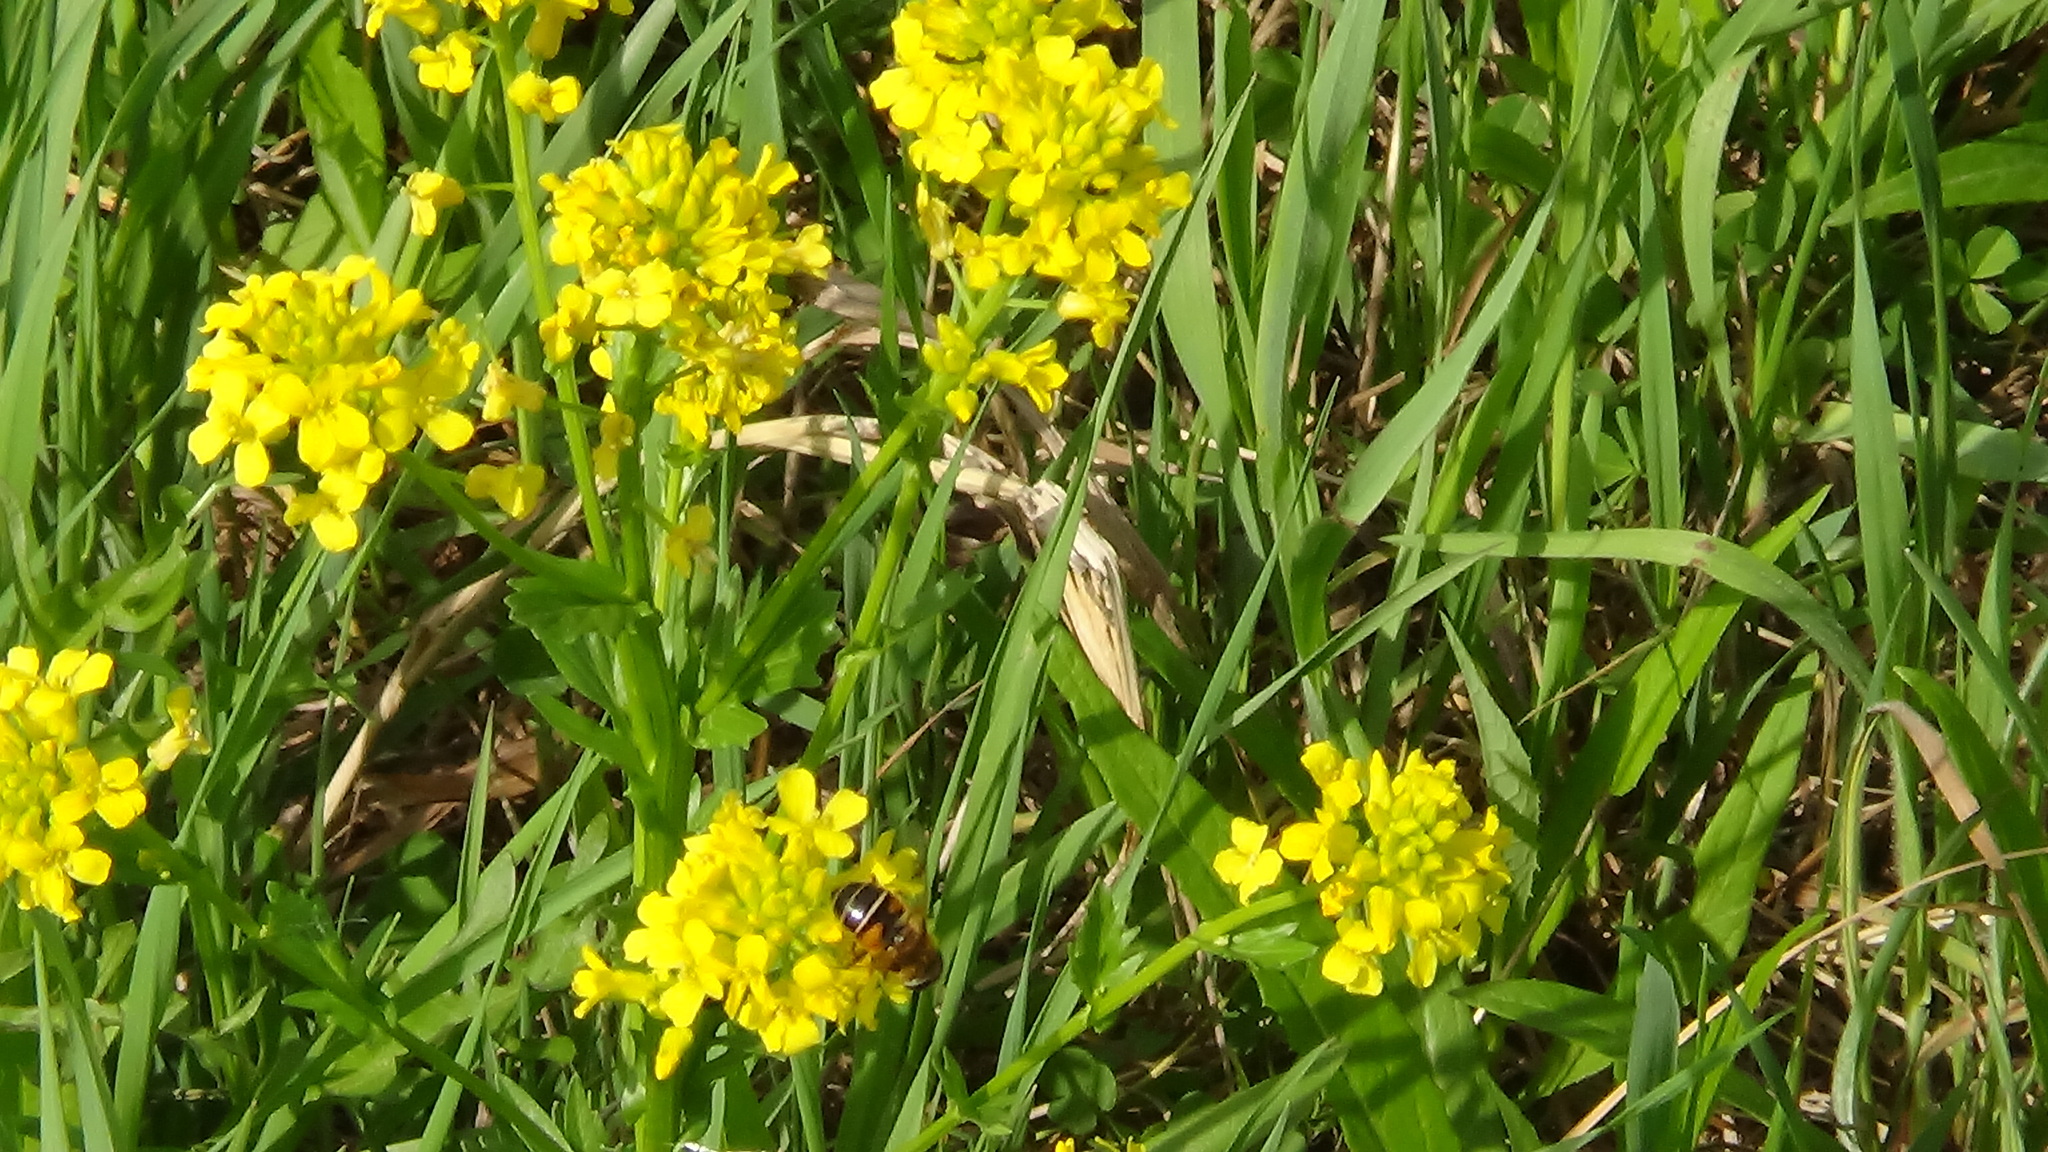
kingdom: Plantae
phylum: Tracheophyta
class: Magnoliopsida
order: Brassicales
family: Brassicaceae
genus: Barbarea
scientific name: Barbarea vulgaris
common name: Cressy-greens
